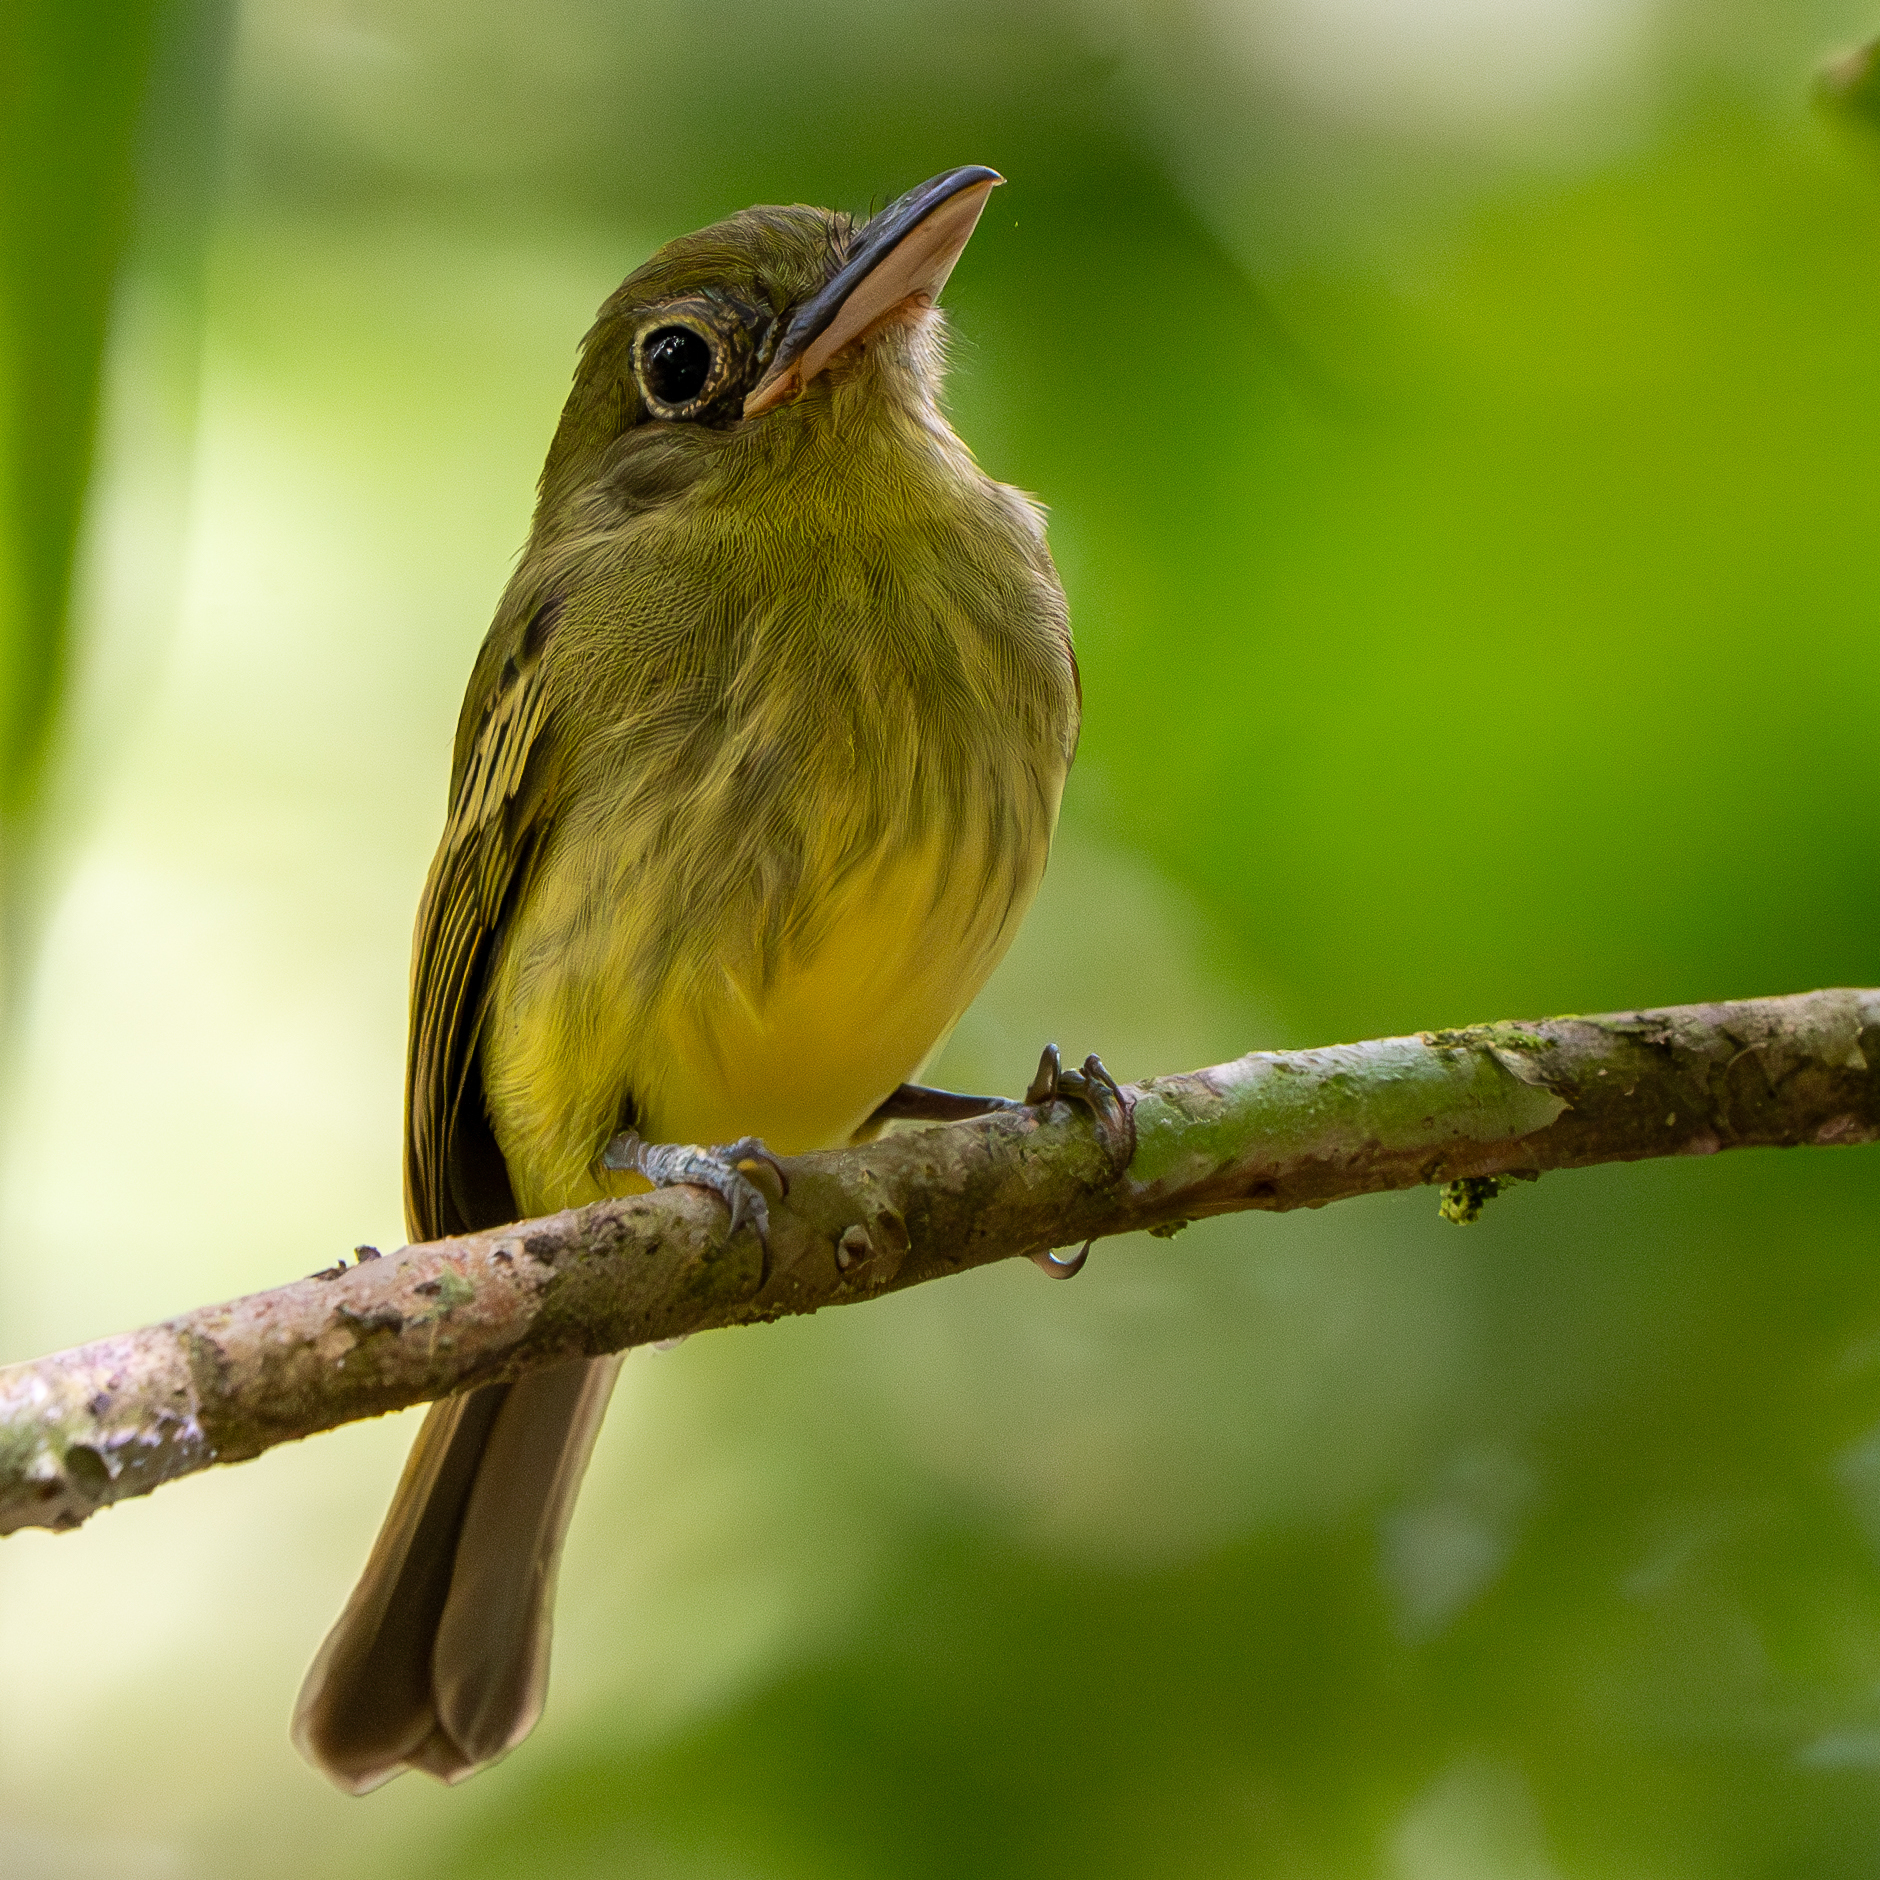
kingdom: Animalia
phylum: Chordata
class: Aves
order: Passeriformes
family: Tyrannidae
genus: Rhynchocyclus
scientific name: Rhynchocyclus olivaceus
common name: Olivaceous flatbill
